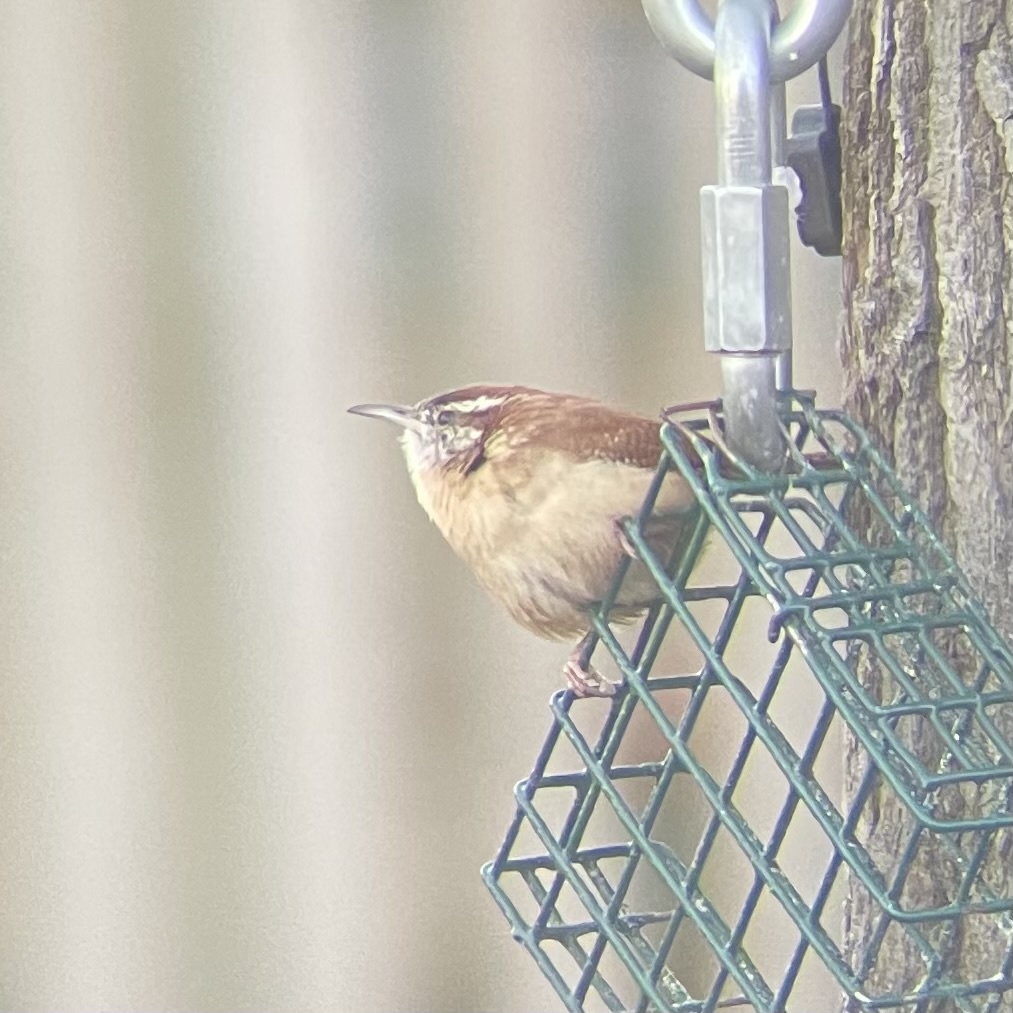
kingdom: Animalia
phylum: Chordata
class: Aves
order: Passeriformes
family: Troglodytidae
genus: Thryothorus
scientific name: Thryothorus ludovicianus
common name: Carolina wren
